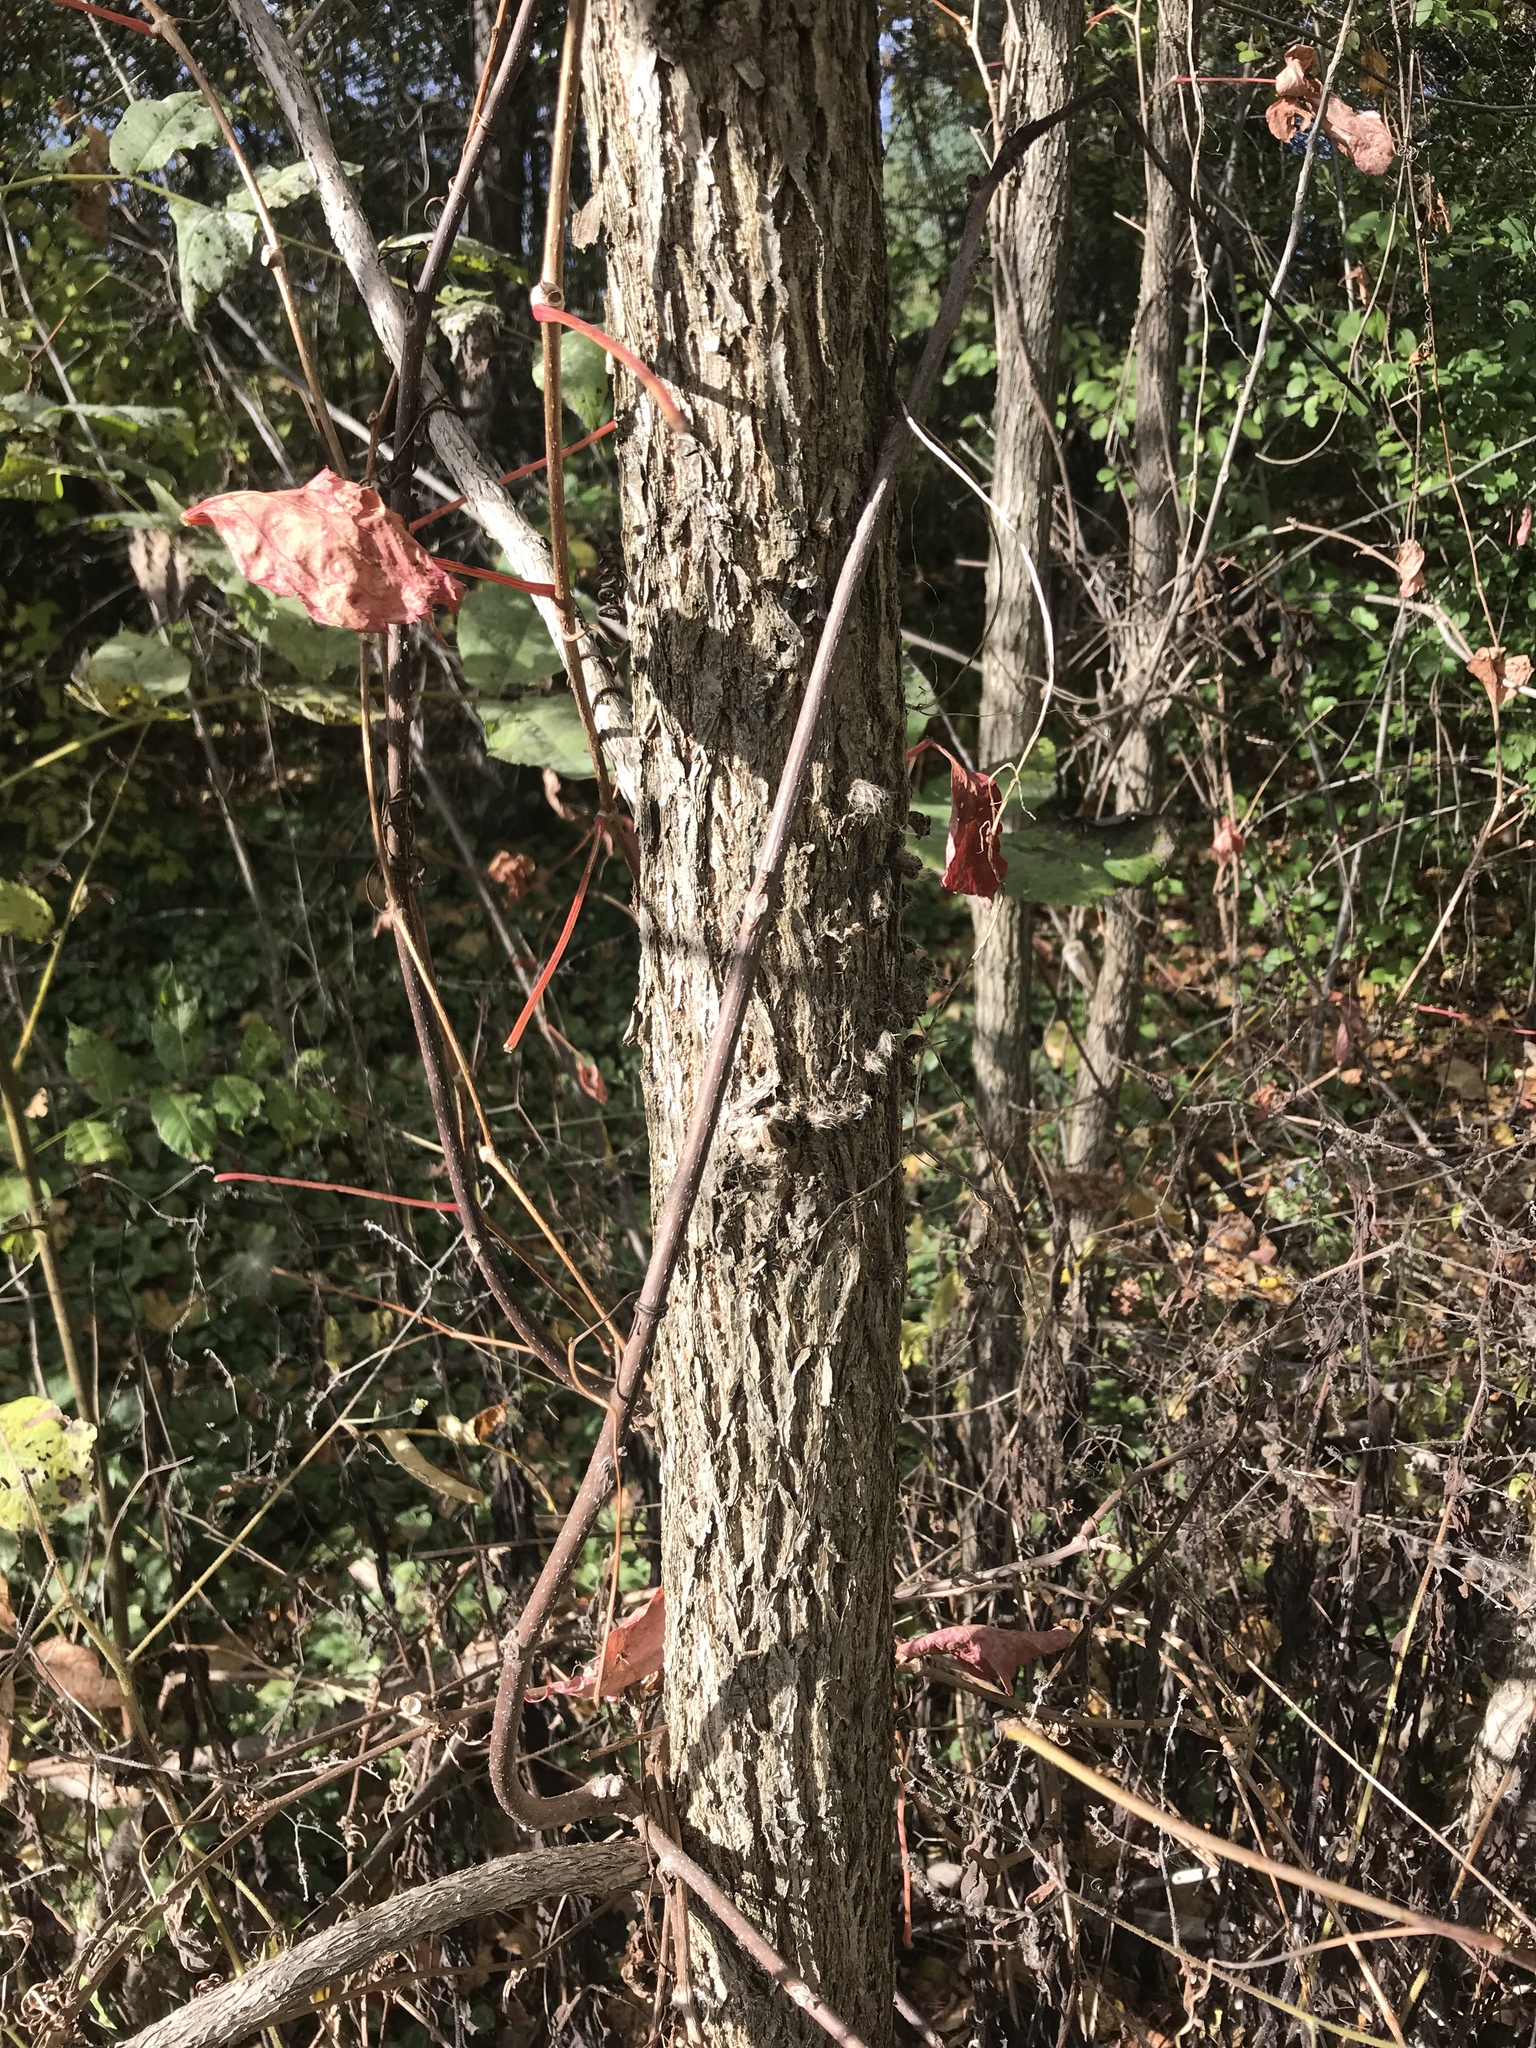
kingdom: Plantae
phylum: Tracheophyta
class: Magnoliopsida
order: Fagales
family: Juglandaceae
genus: Juglans
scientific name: Juglans nigra
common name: Black walnut
